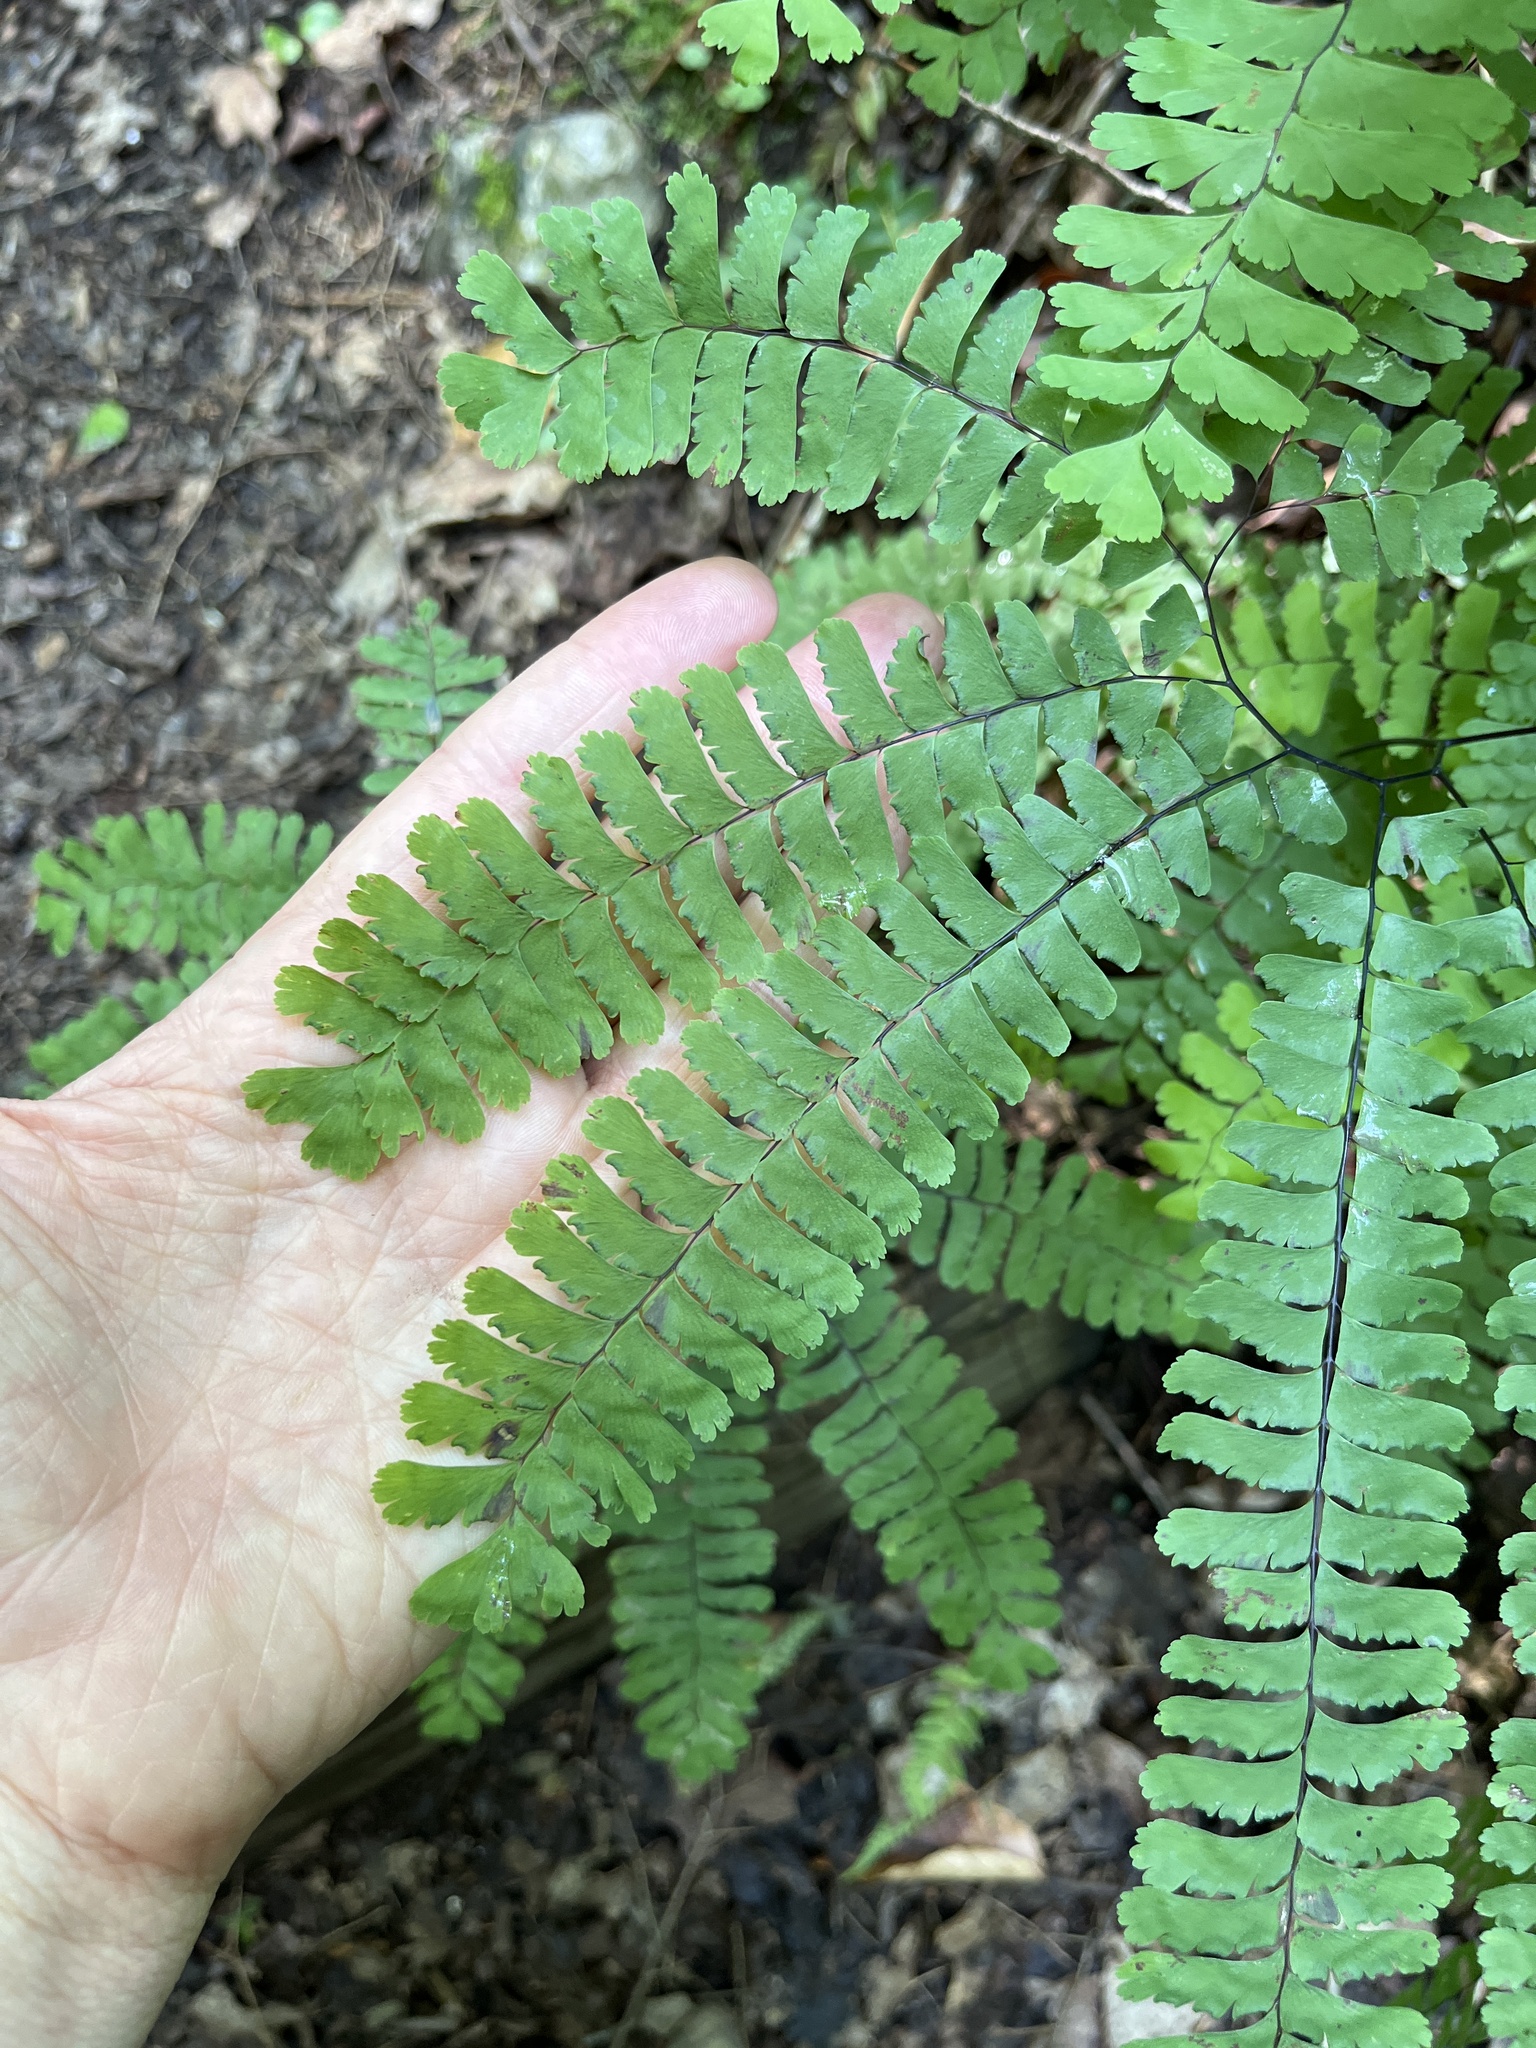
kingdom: Plantae
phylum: Tracheophyta
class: Polypodiopsida
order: Polypodiales
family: Pteridaceae
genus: Adiantum
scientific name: Adiantum pedatum
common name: Five-finger fern
